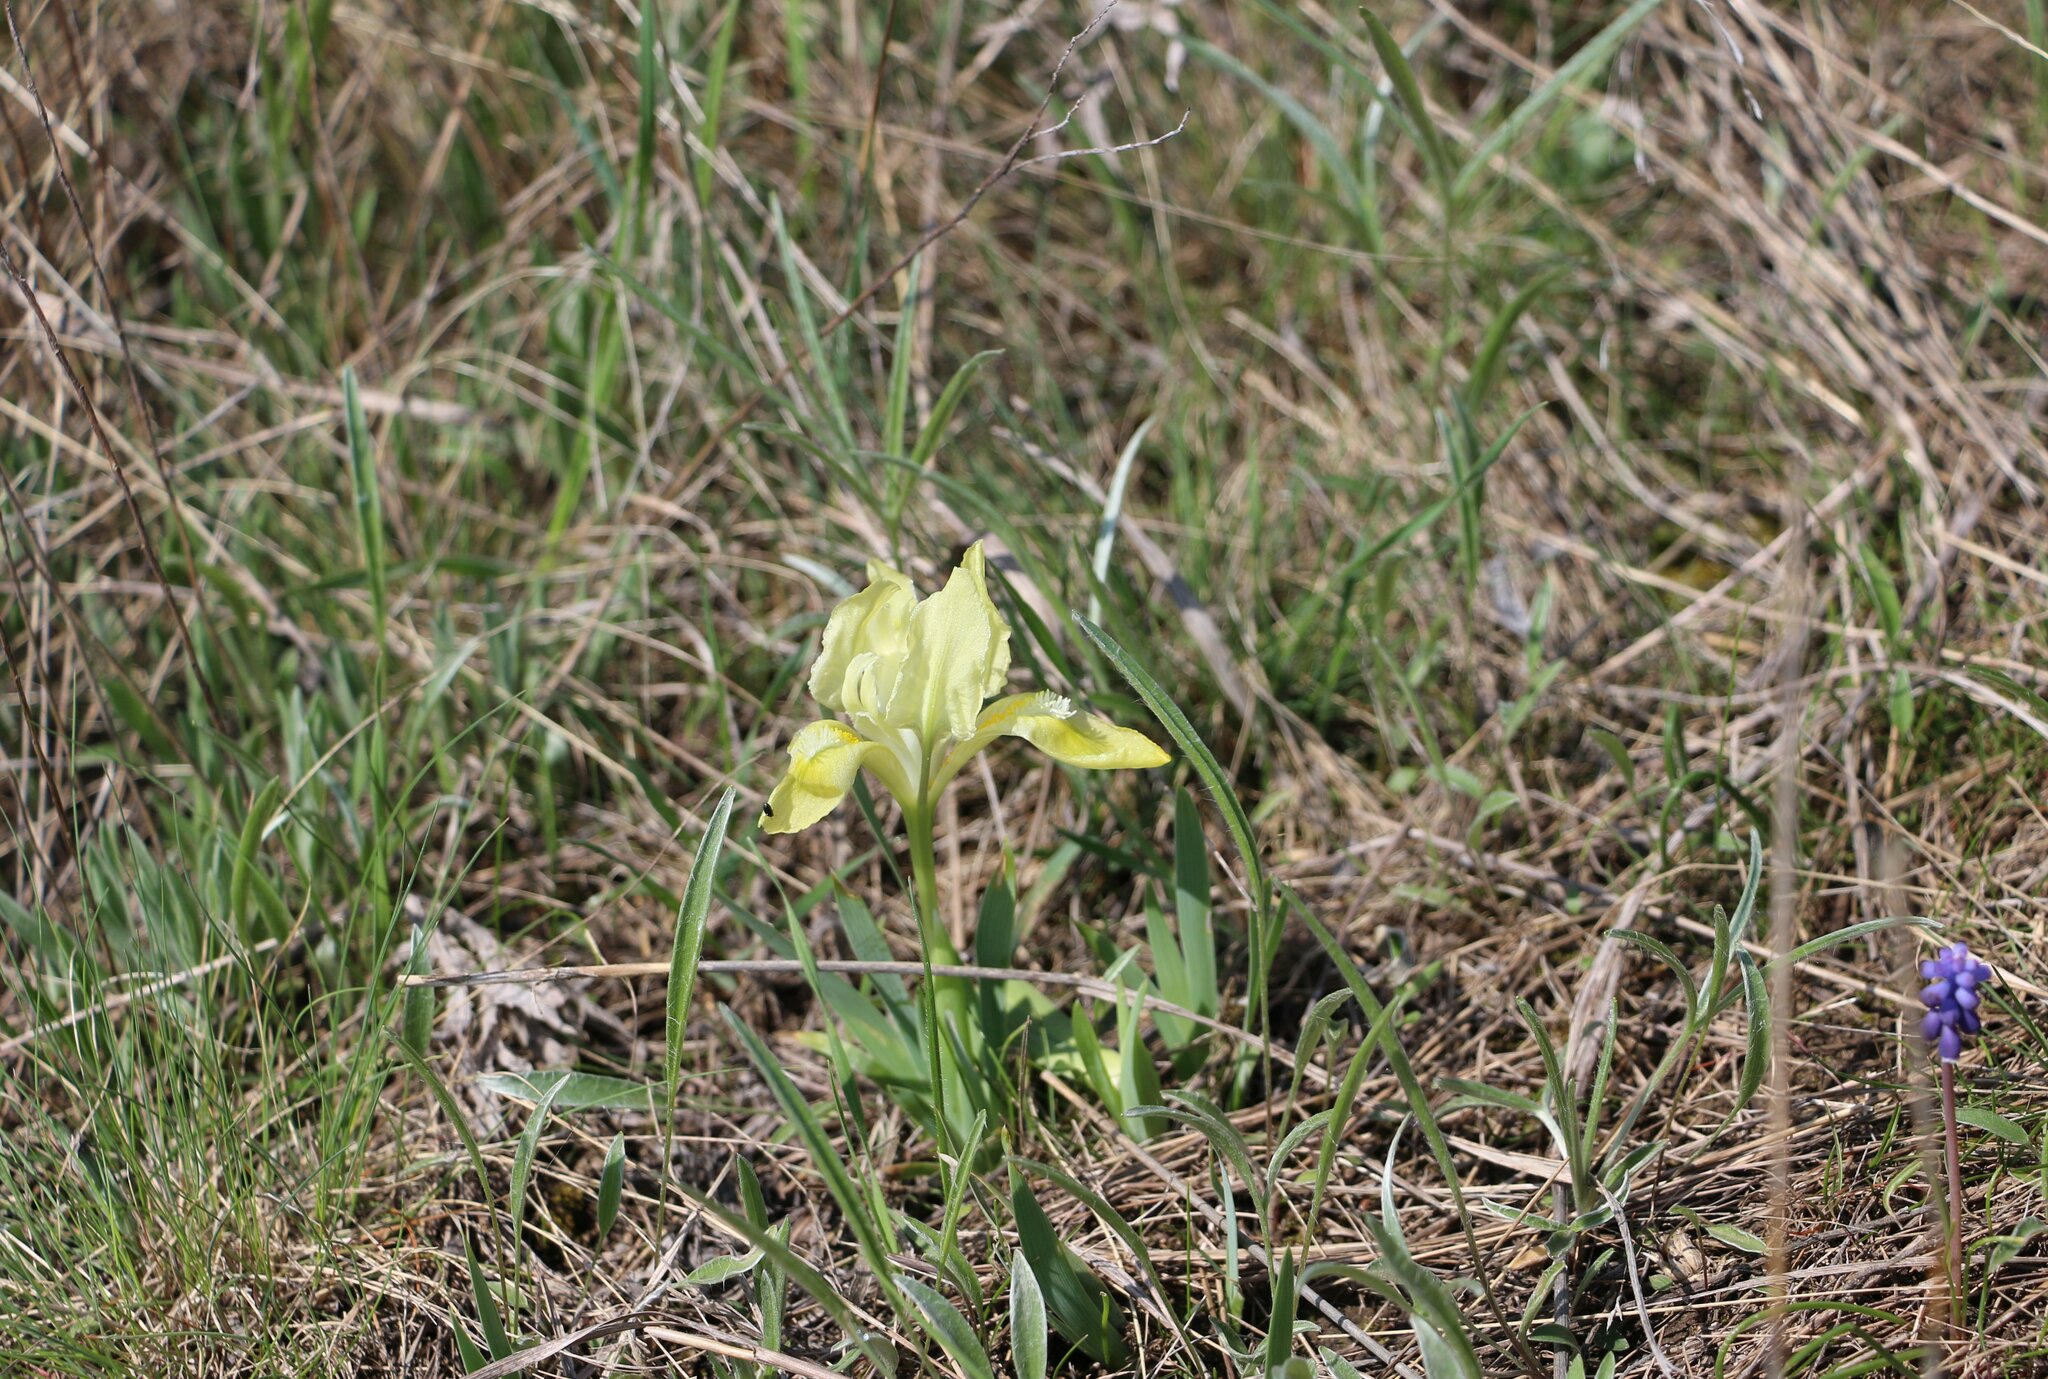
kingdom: Plantae
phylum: Tracheophyta
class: Liliopsida
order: Asparagales
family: Iridaceae
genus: Iris
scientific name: Iris pumila
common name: Dwarf iris
